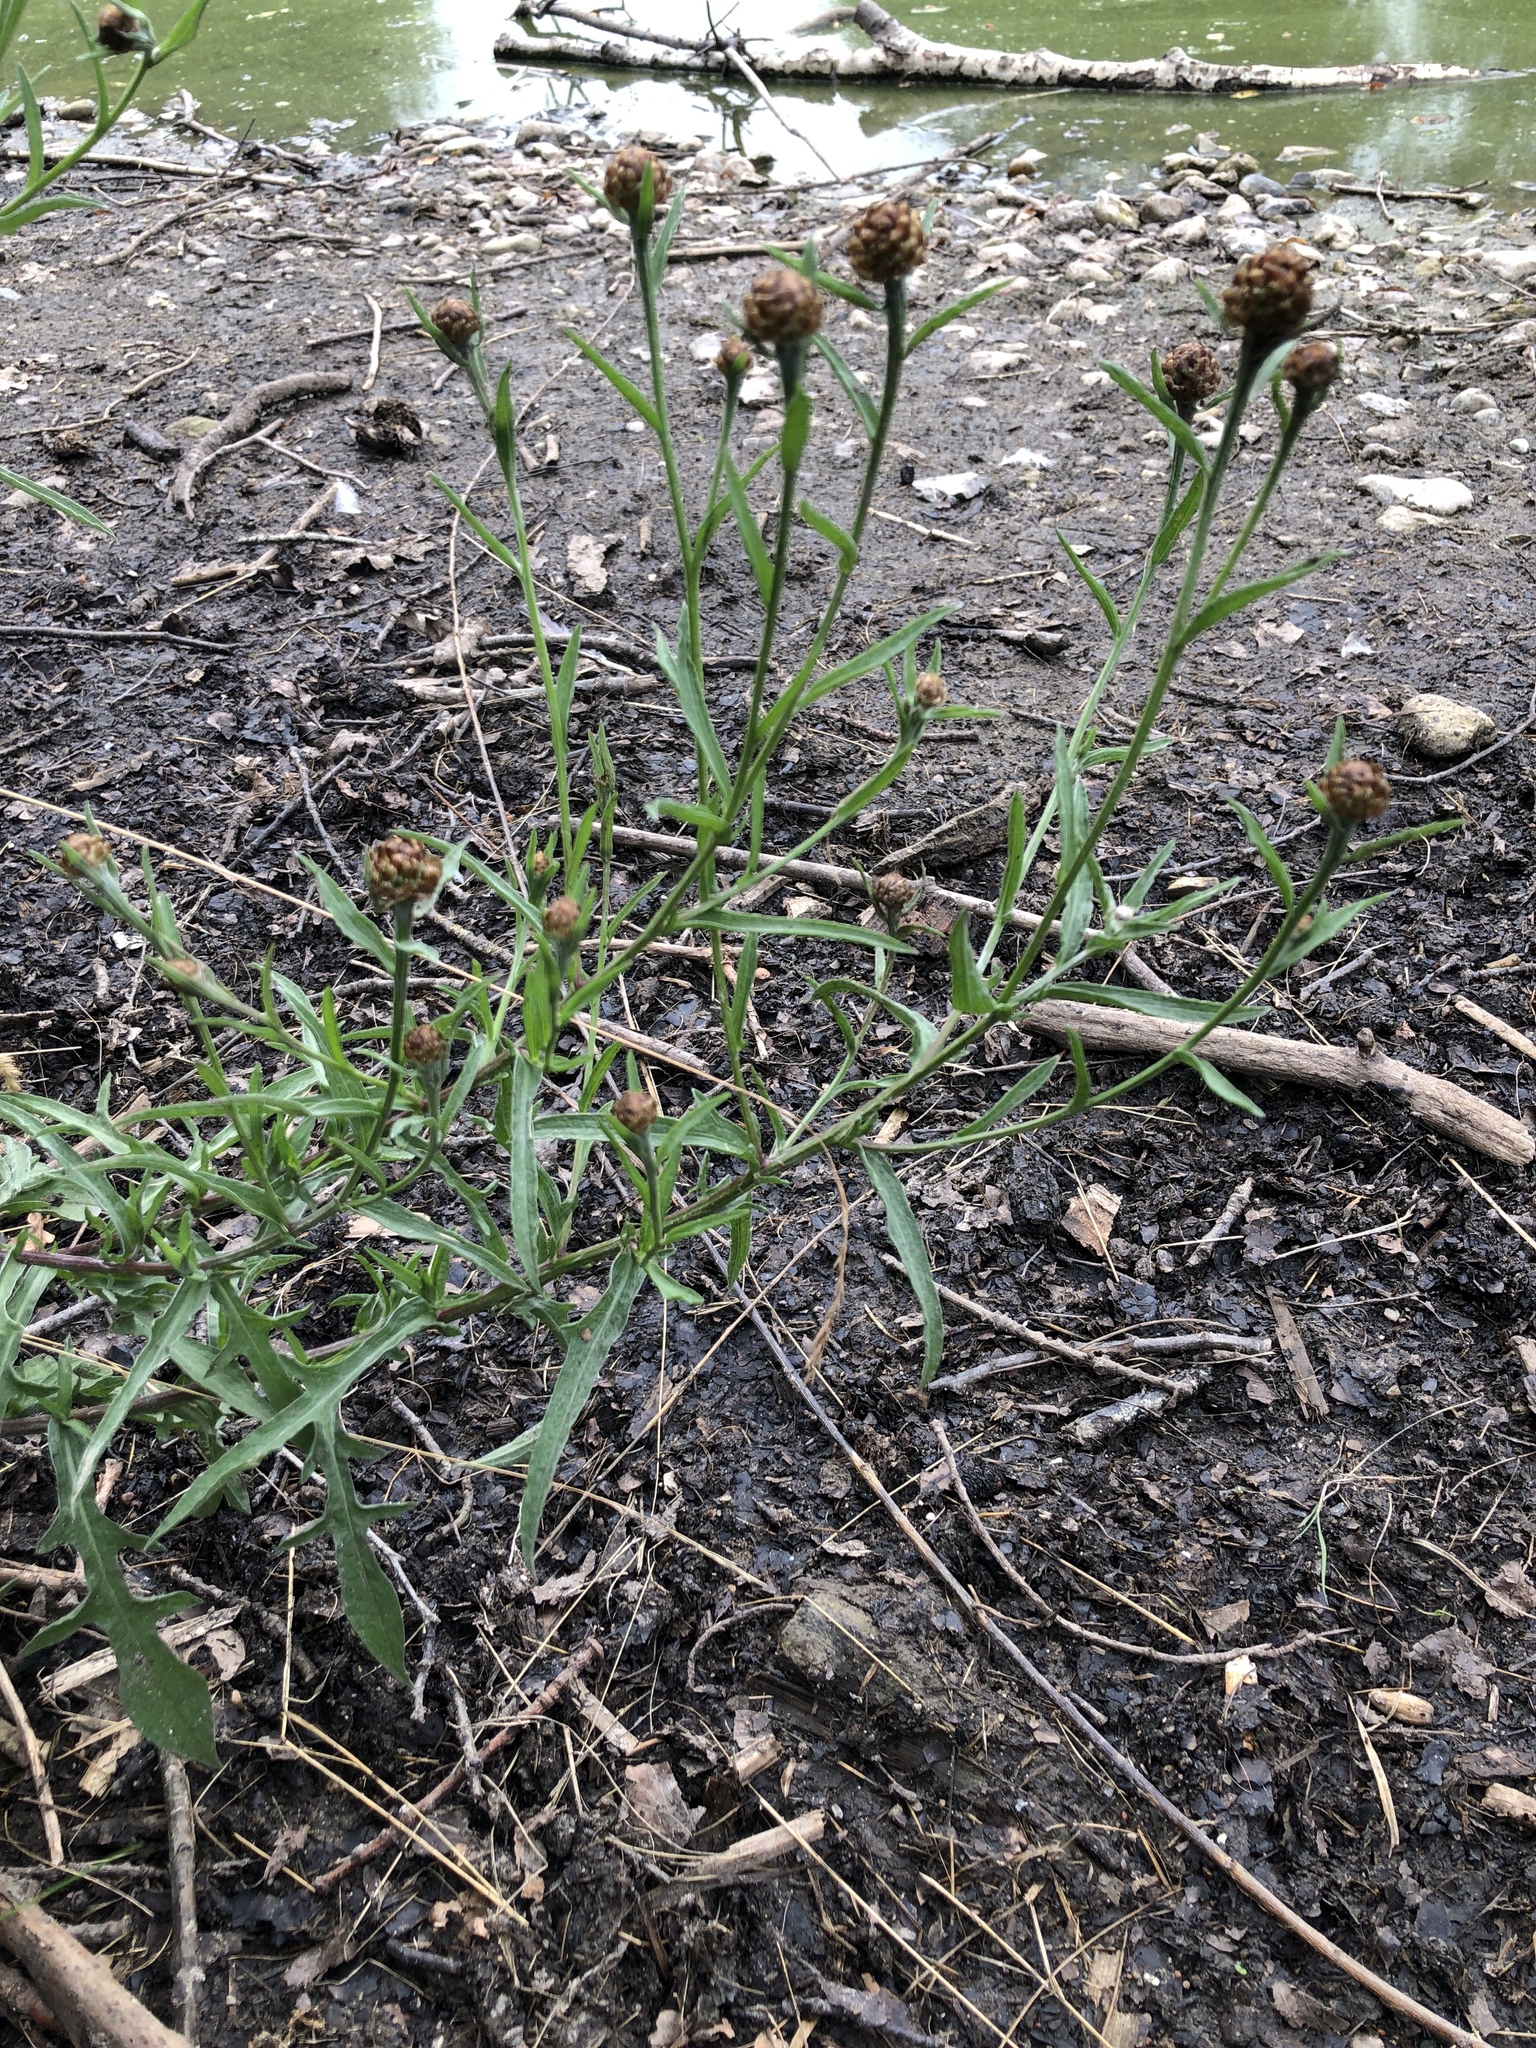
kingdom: Plantae
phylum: Tracheophyta
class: Magnoliopsida
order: Asterales
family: Asteraceae
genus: Centaurea
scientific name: Centaurea jacea
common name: Brown knapweed
